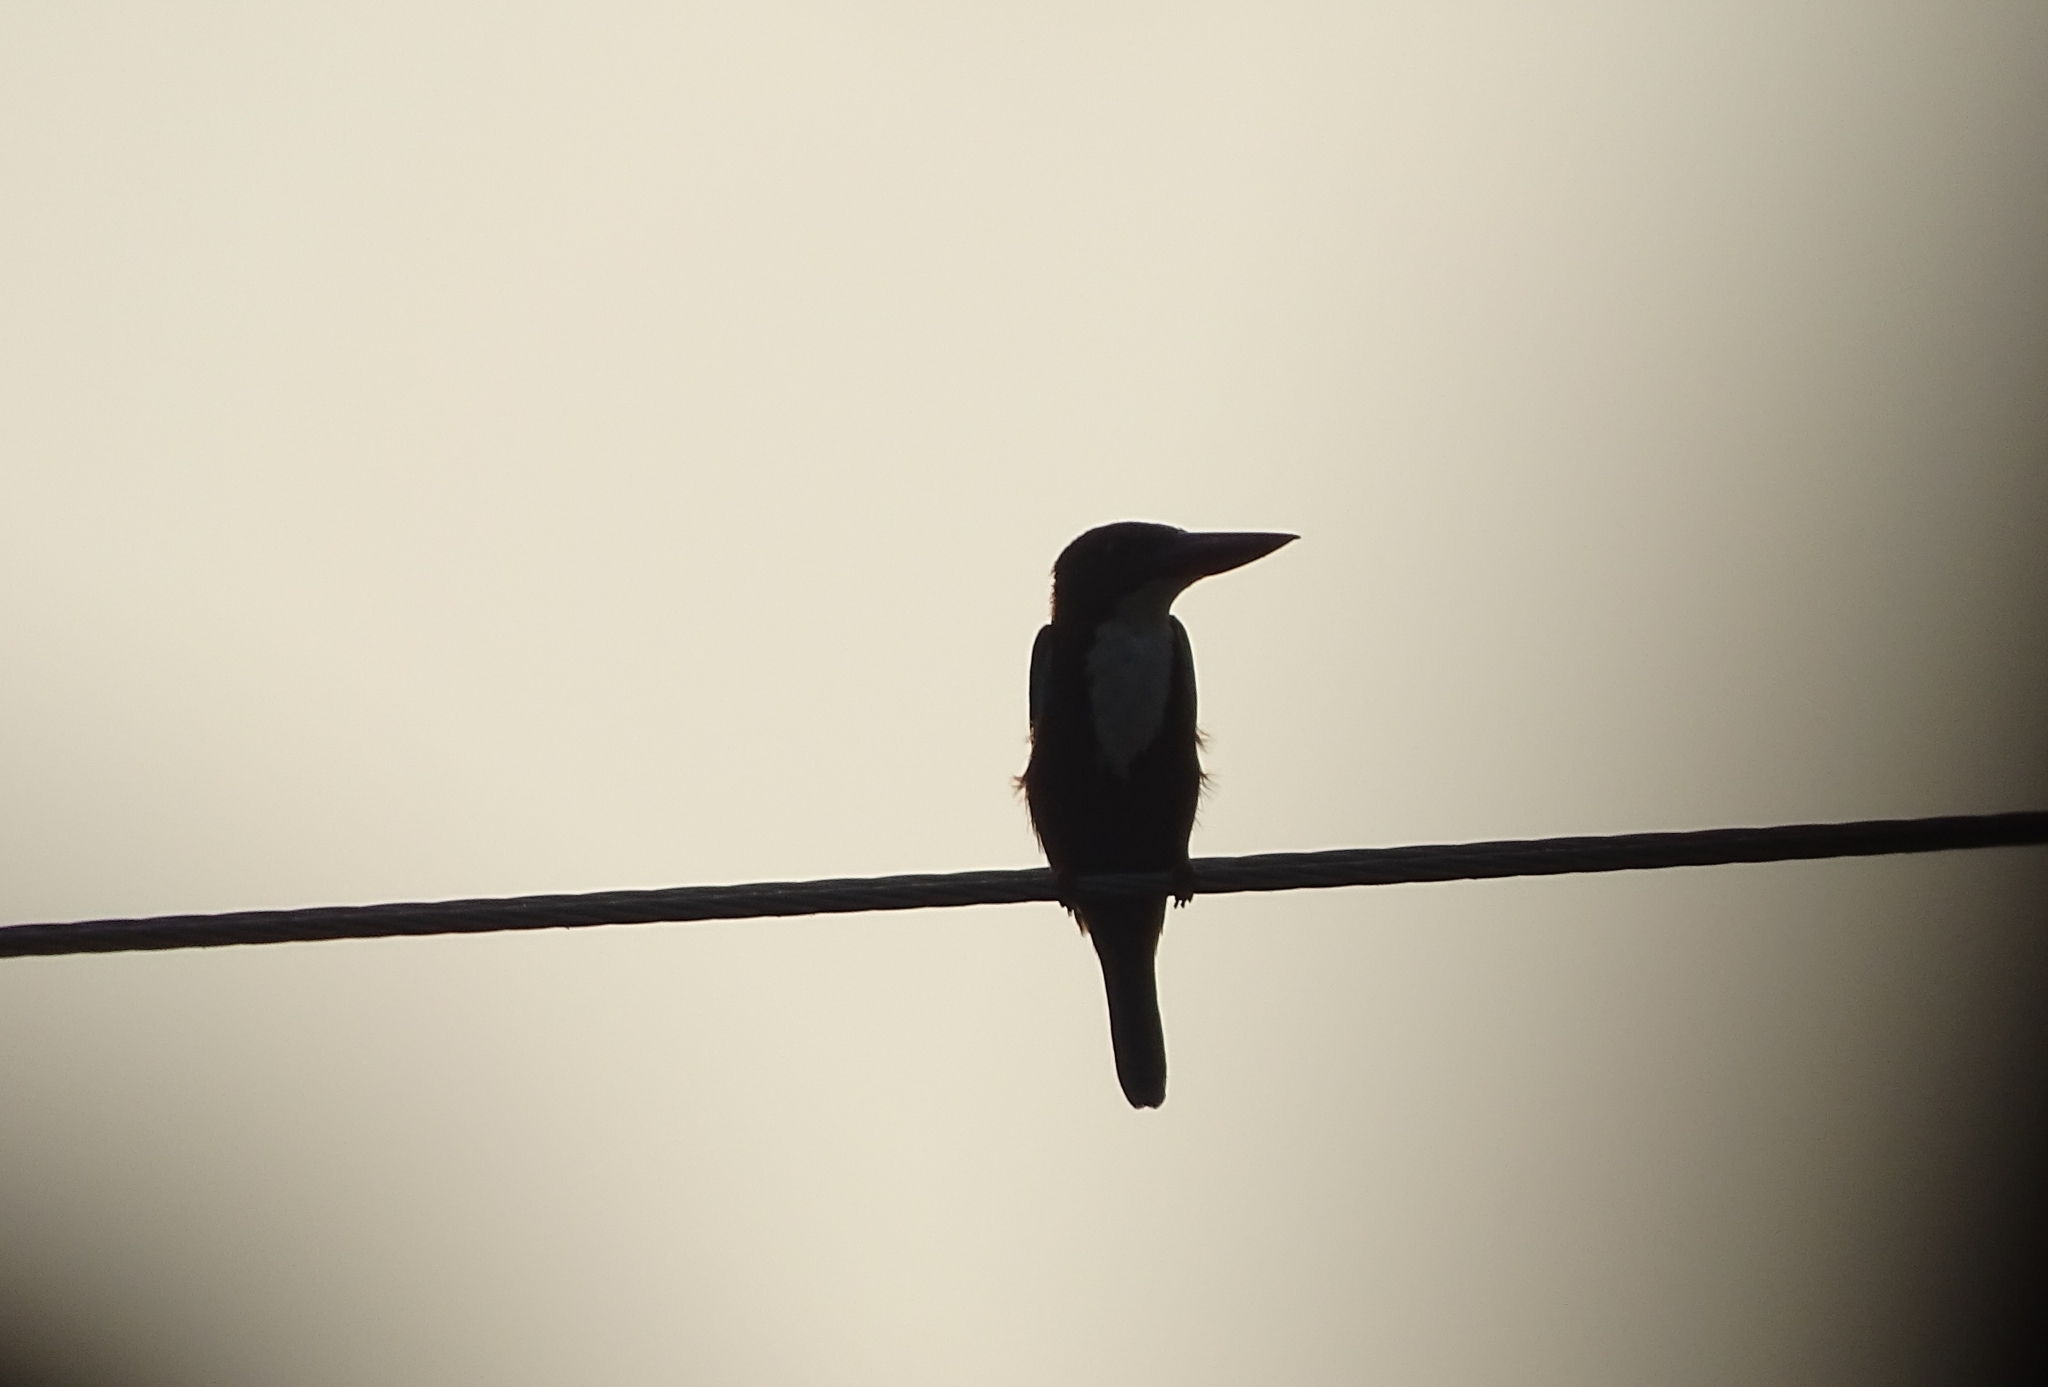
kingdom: Animalia
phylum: Chordata
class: Aves
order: Coraciiformes
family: Alcedinidae
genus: Halcyon
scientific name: Halcyon smyrnensis
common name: White-throated kingfisher
